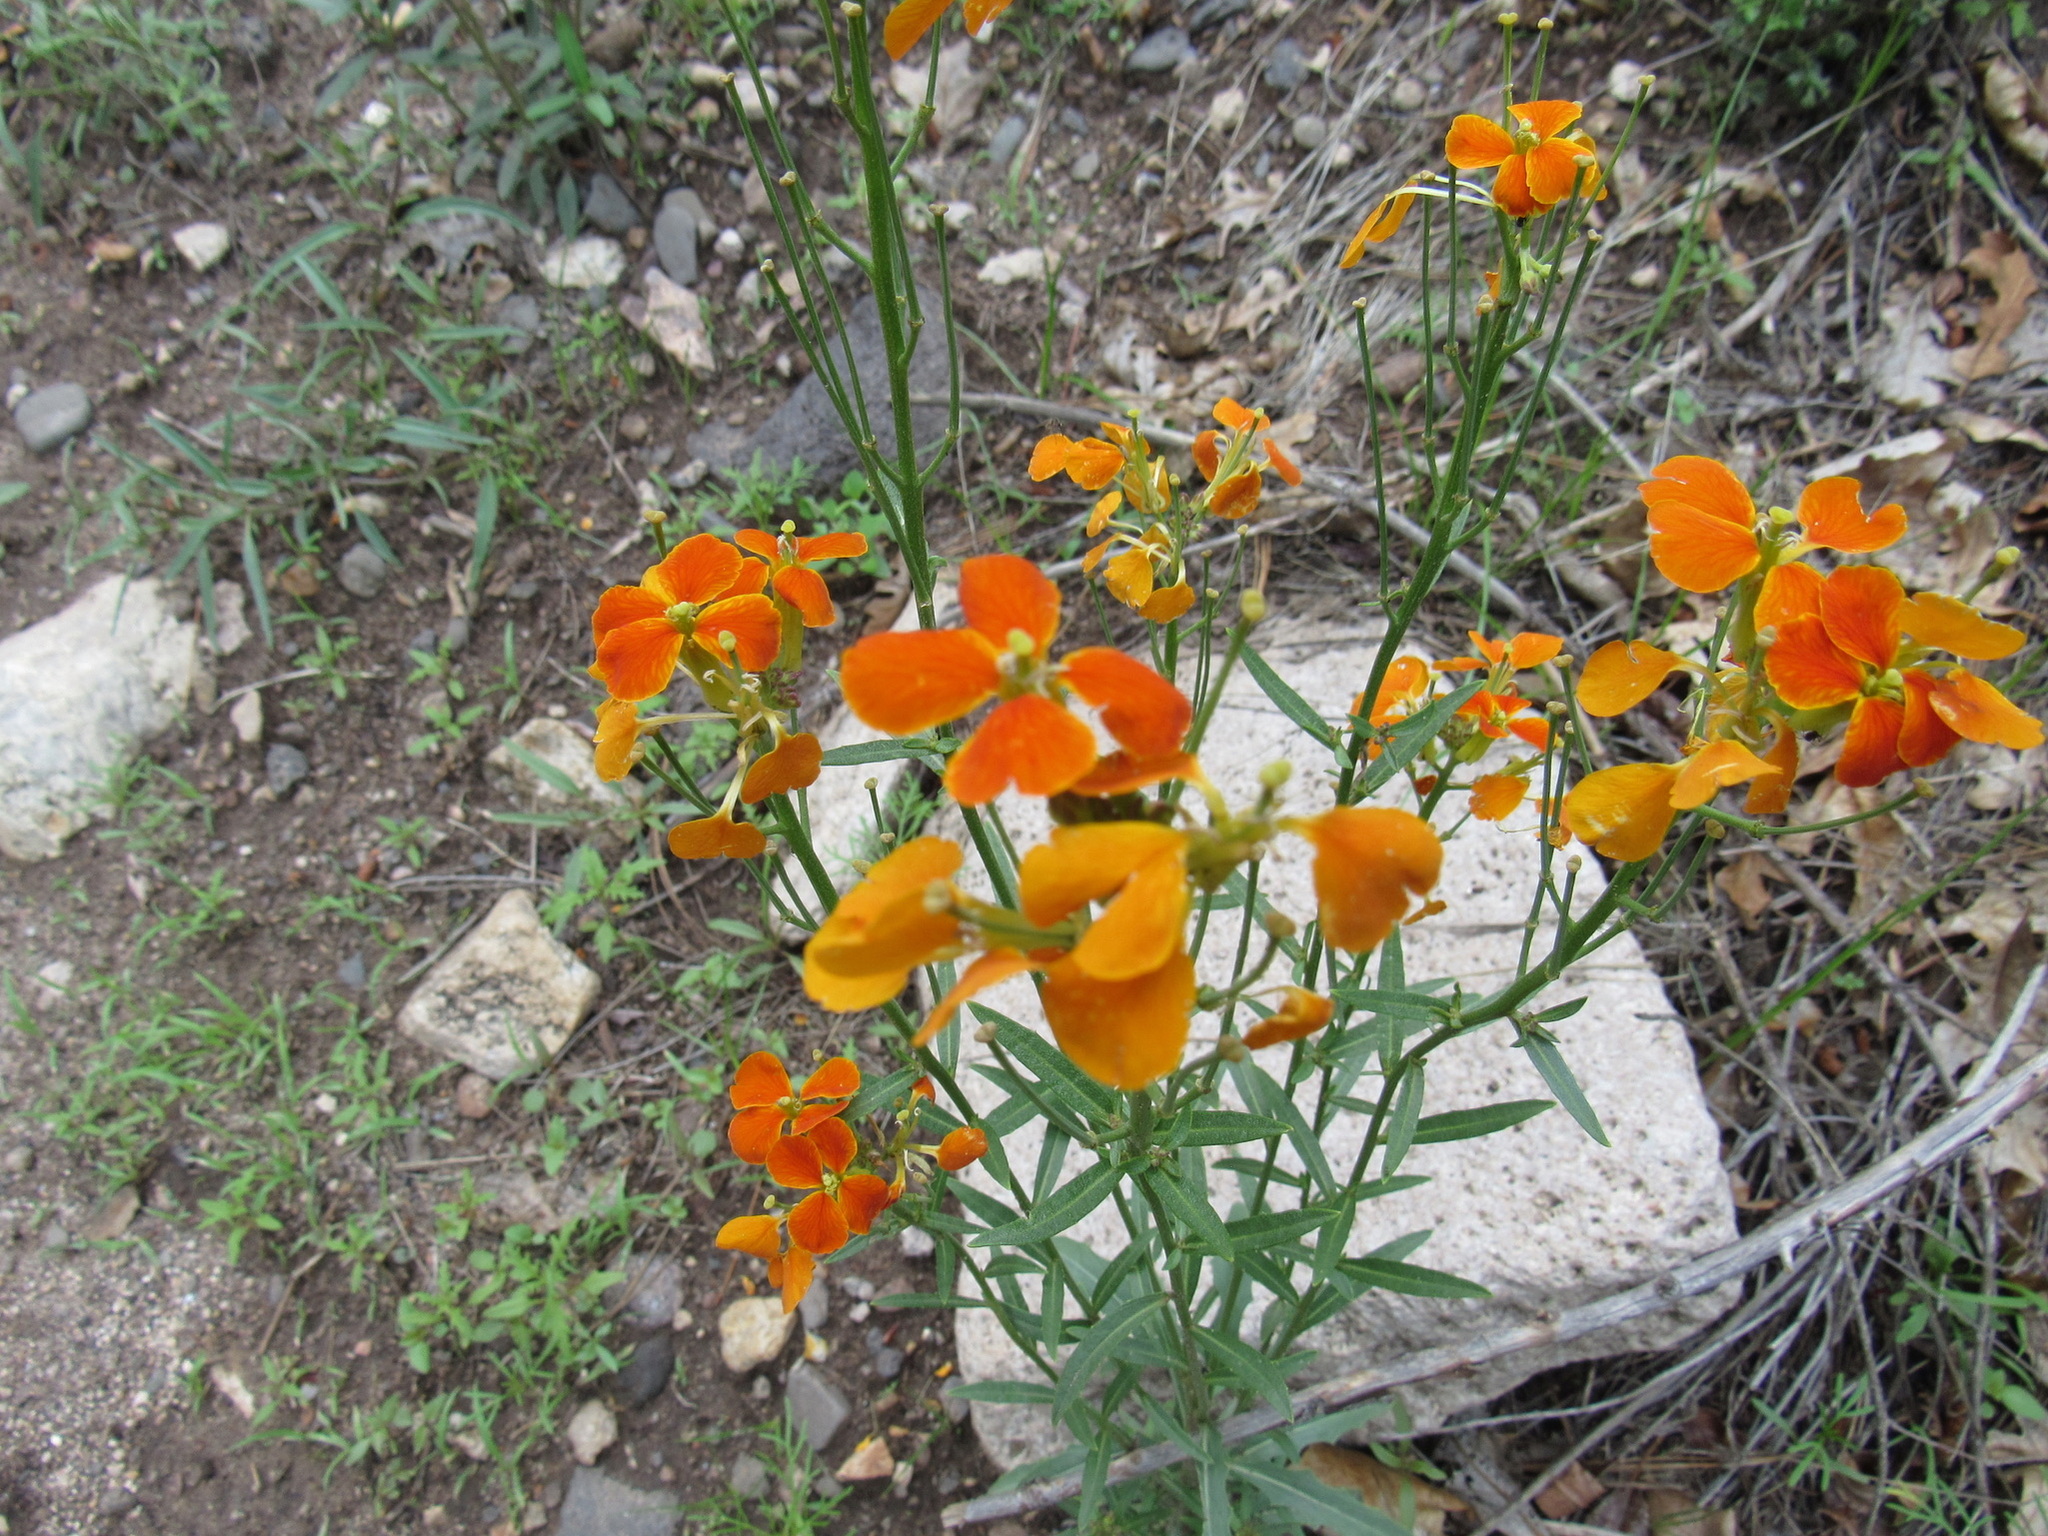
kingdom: Plantae
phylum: Tracheophyta
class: Magnoliopsida
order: Brassicales
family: Brassicaceae
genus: Erysimum
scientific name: Erysimum capitatum
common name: Western wallflower
